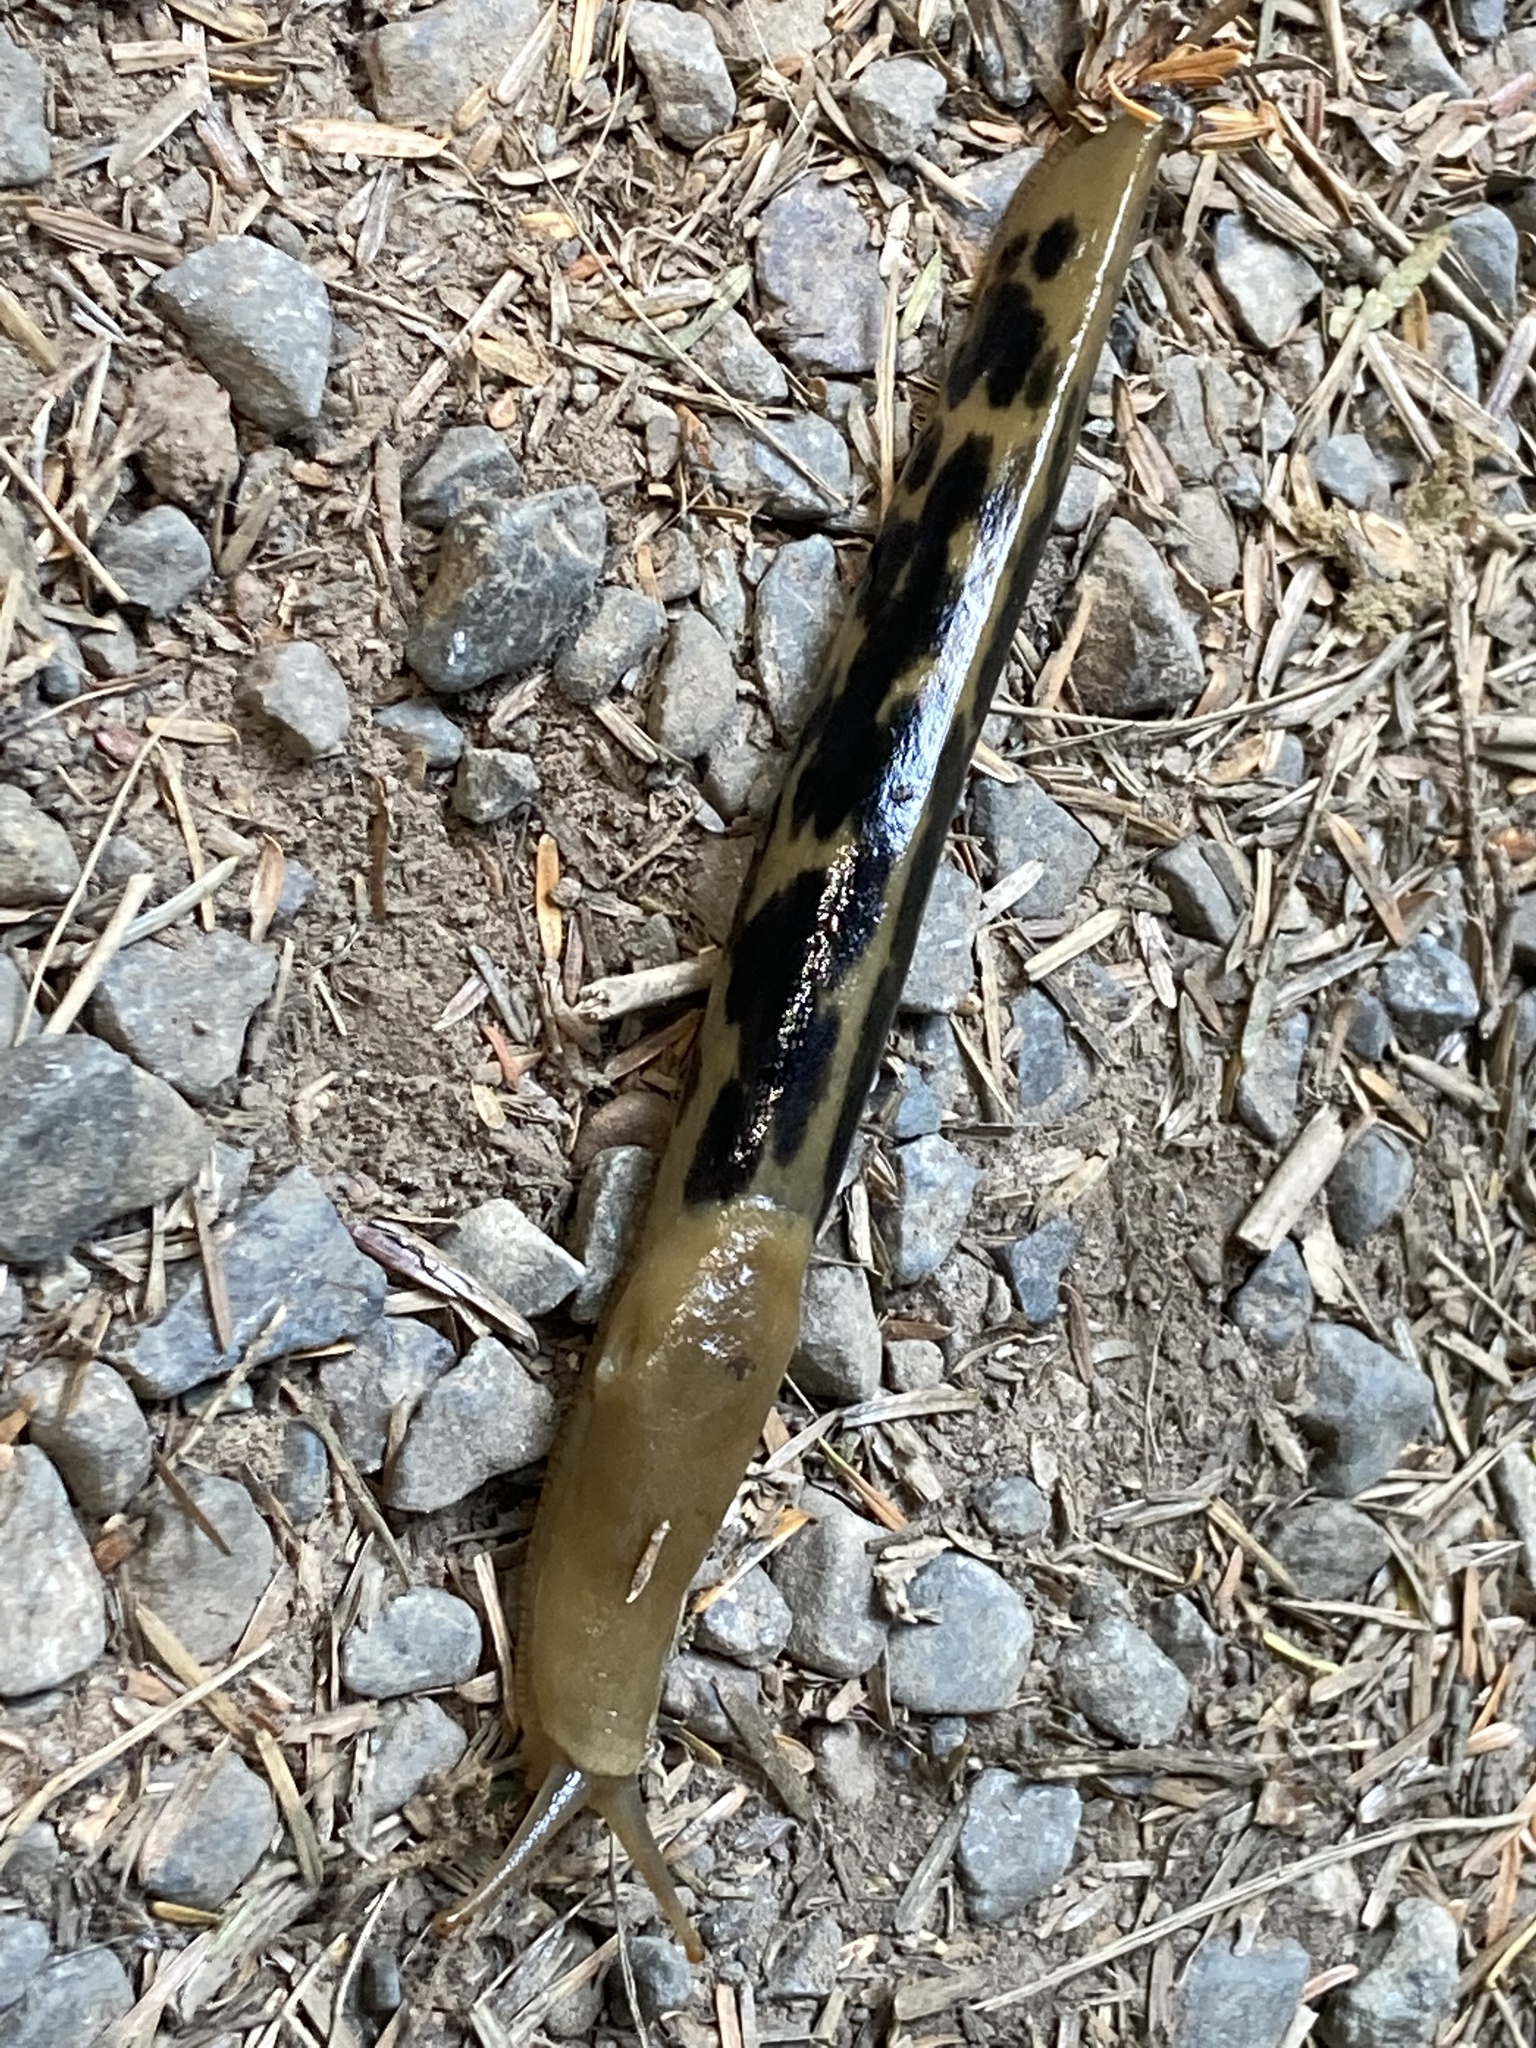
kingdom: Animalia
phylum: Mollusca
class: Gastropoda
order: Stylommatophora
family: Ariolimacidae
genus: Ariolimax
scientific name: Ariolimax columbianus
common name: Pacific banana slug
